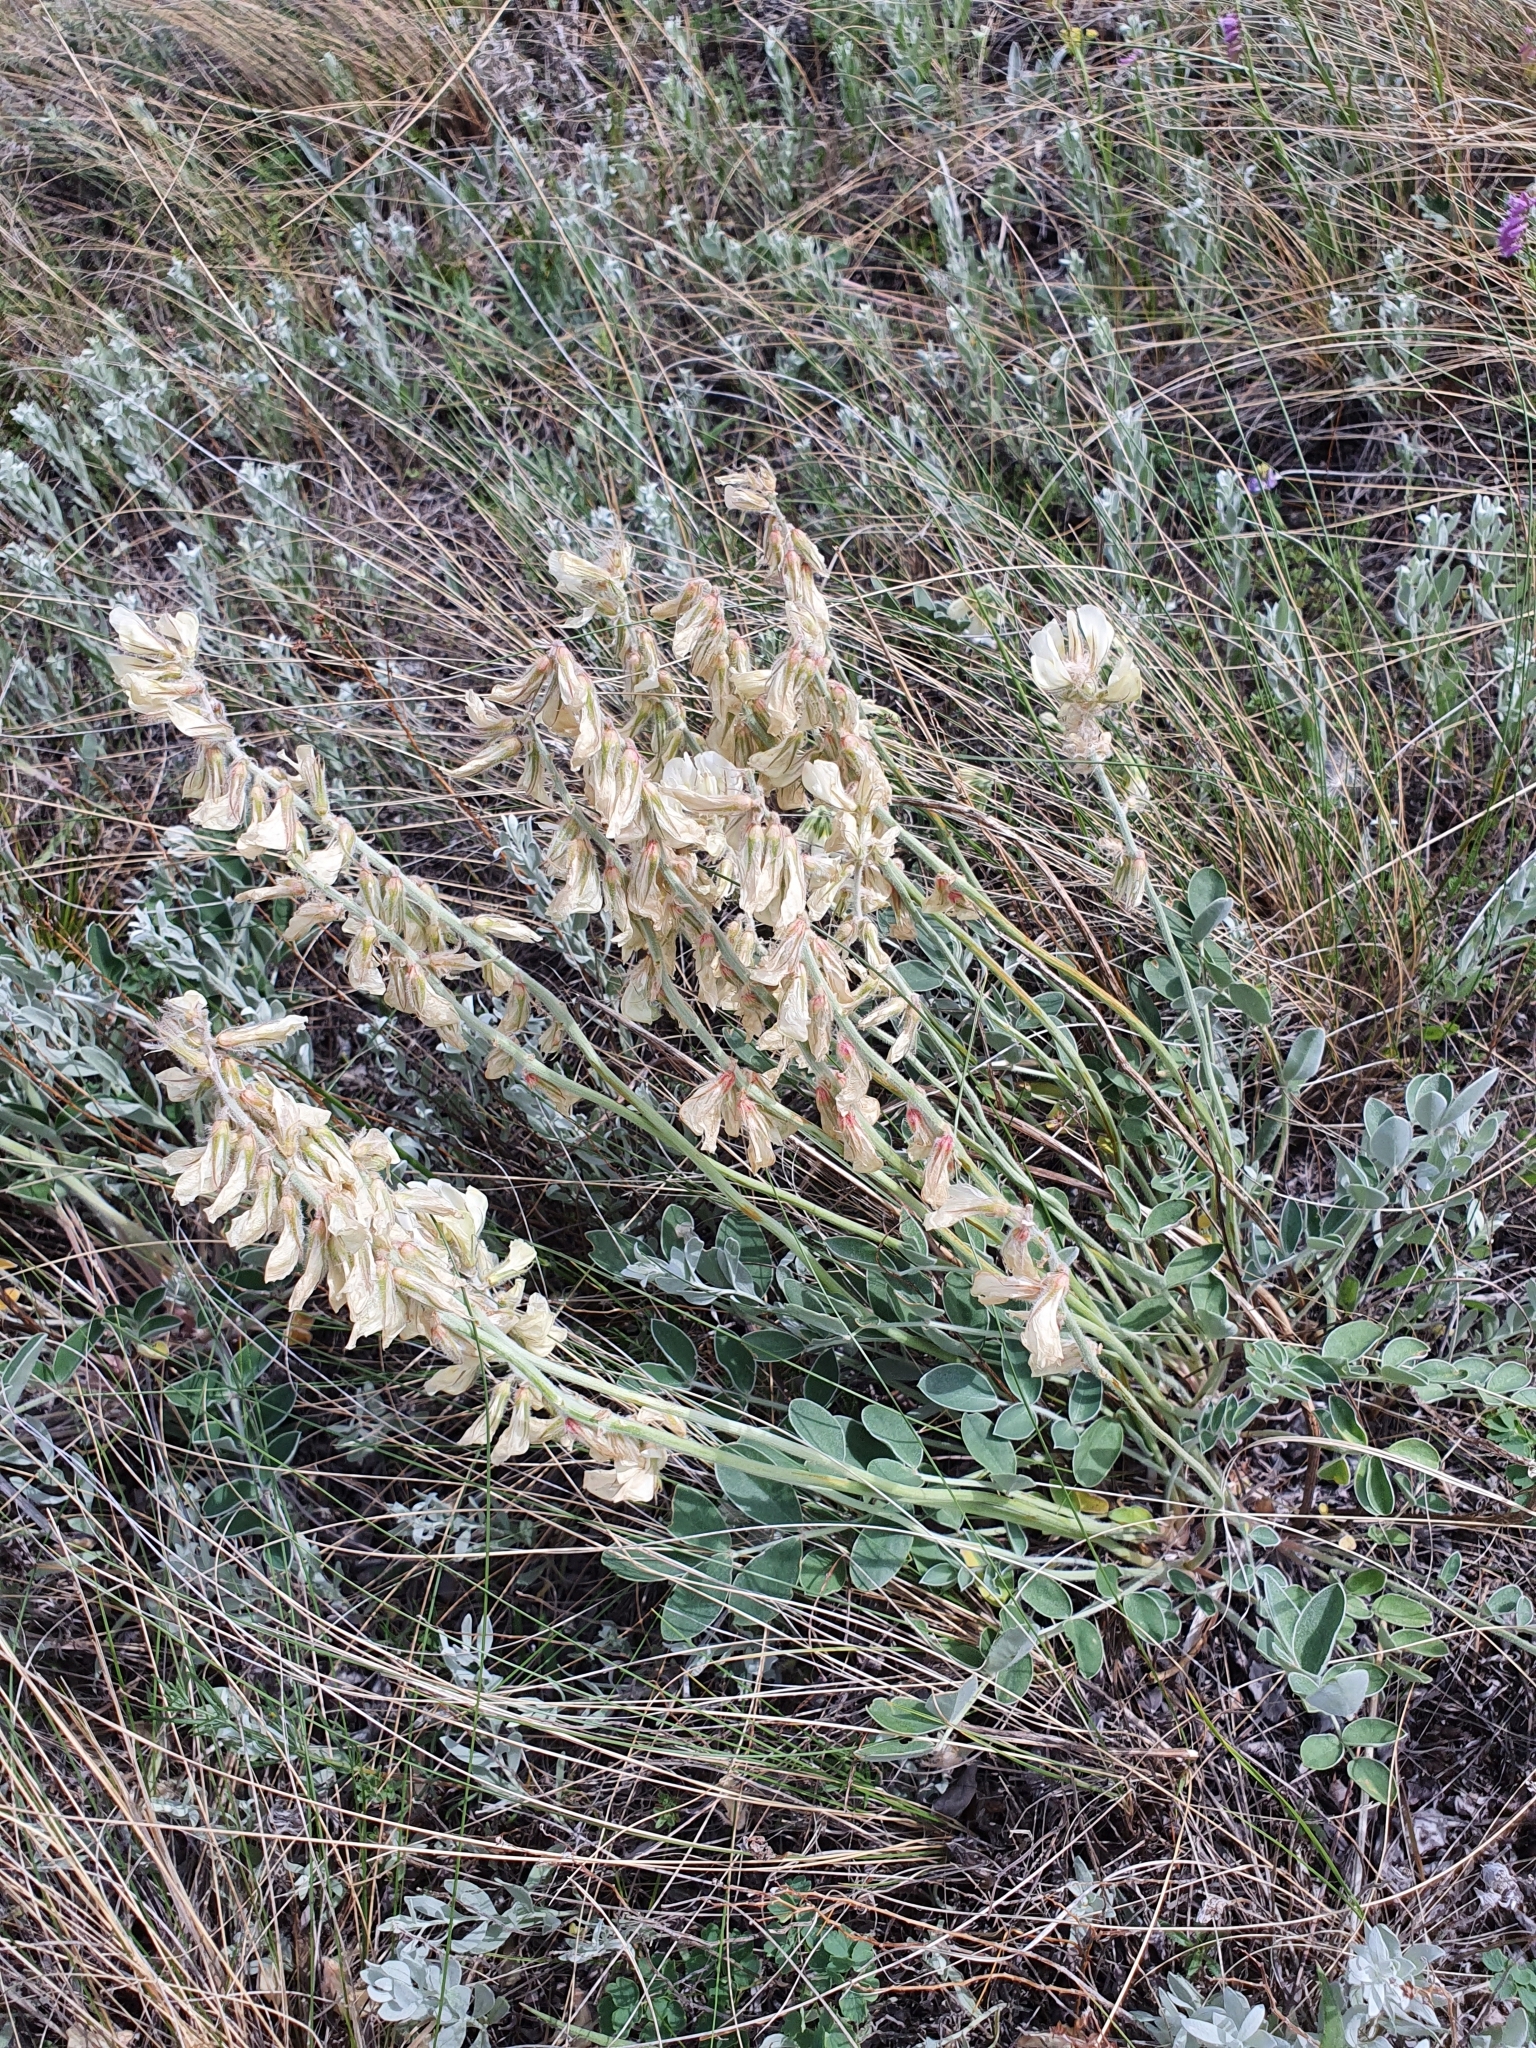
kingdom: Plantae
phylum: Tracheophyta
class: Magnoliopsida
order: Fabales
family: Fabaceae
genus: Hedysarum
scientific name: Hedysarum grandiflorum
